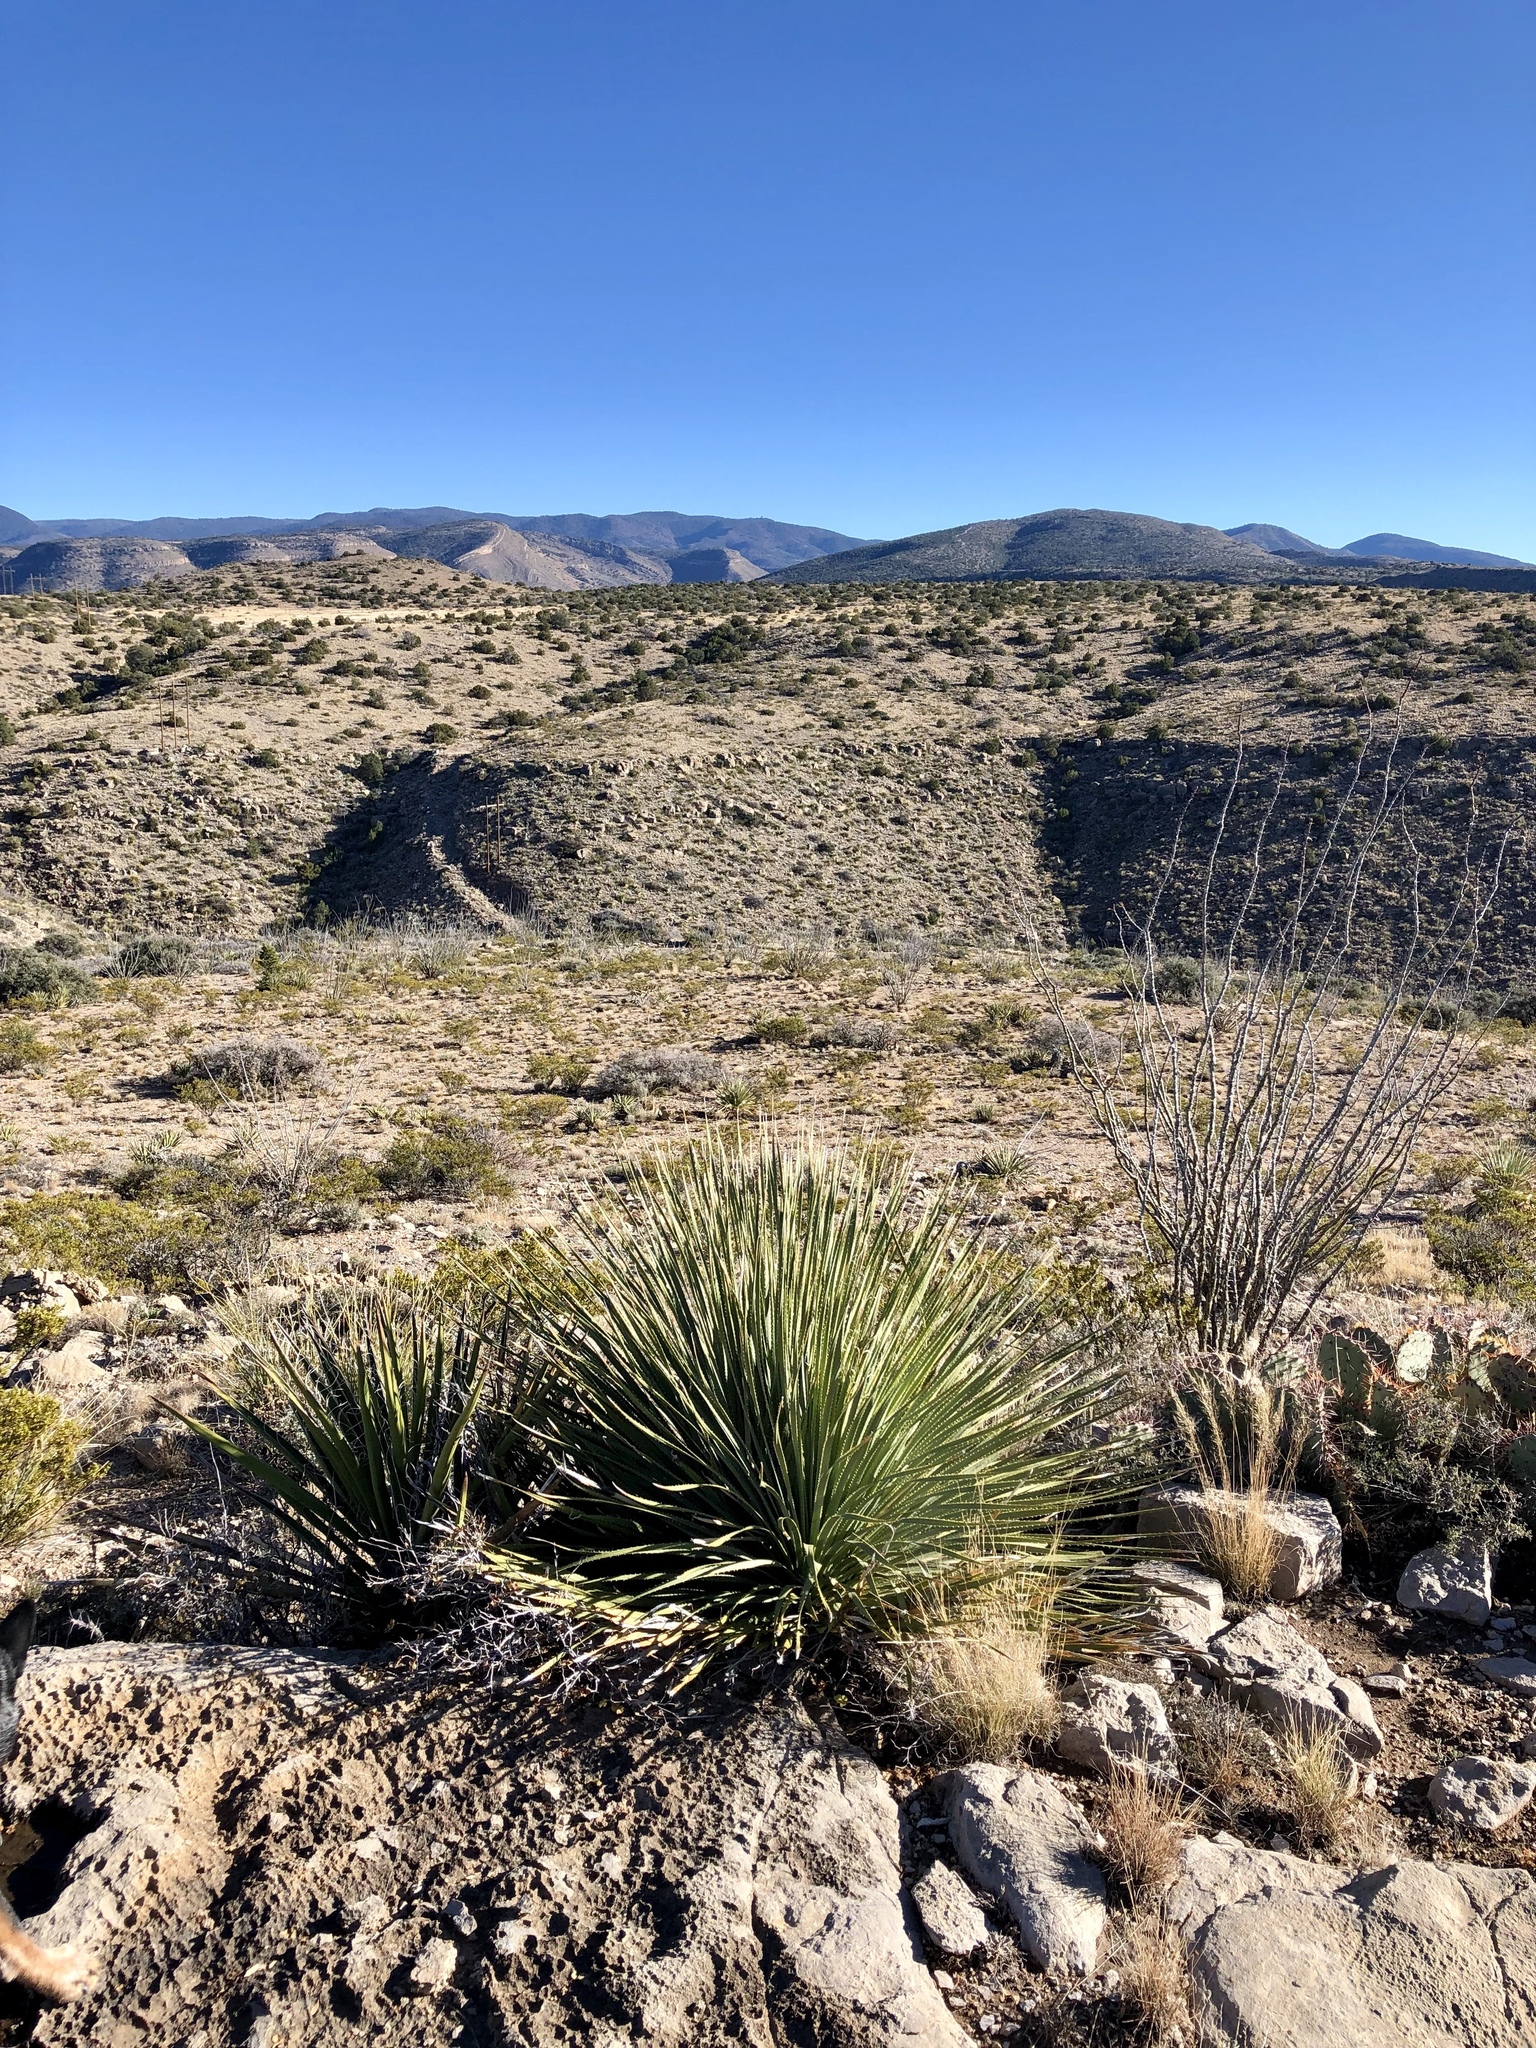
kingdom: Plantae
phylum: Tracheophyta
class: Liliopsida
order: Asparagales
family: Asparagaceae
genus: Dasylirion
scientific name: Dasylirion wheeleri
